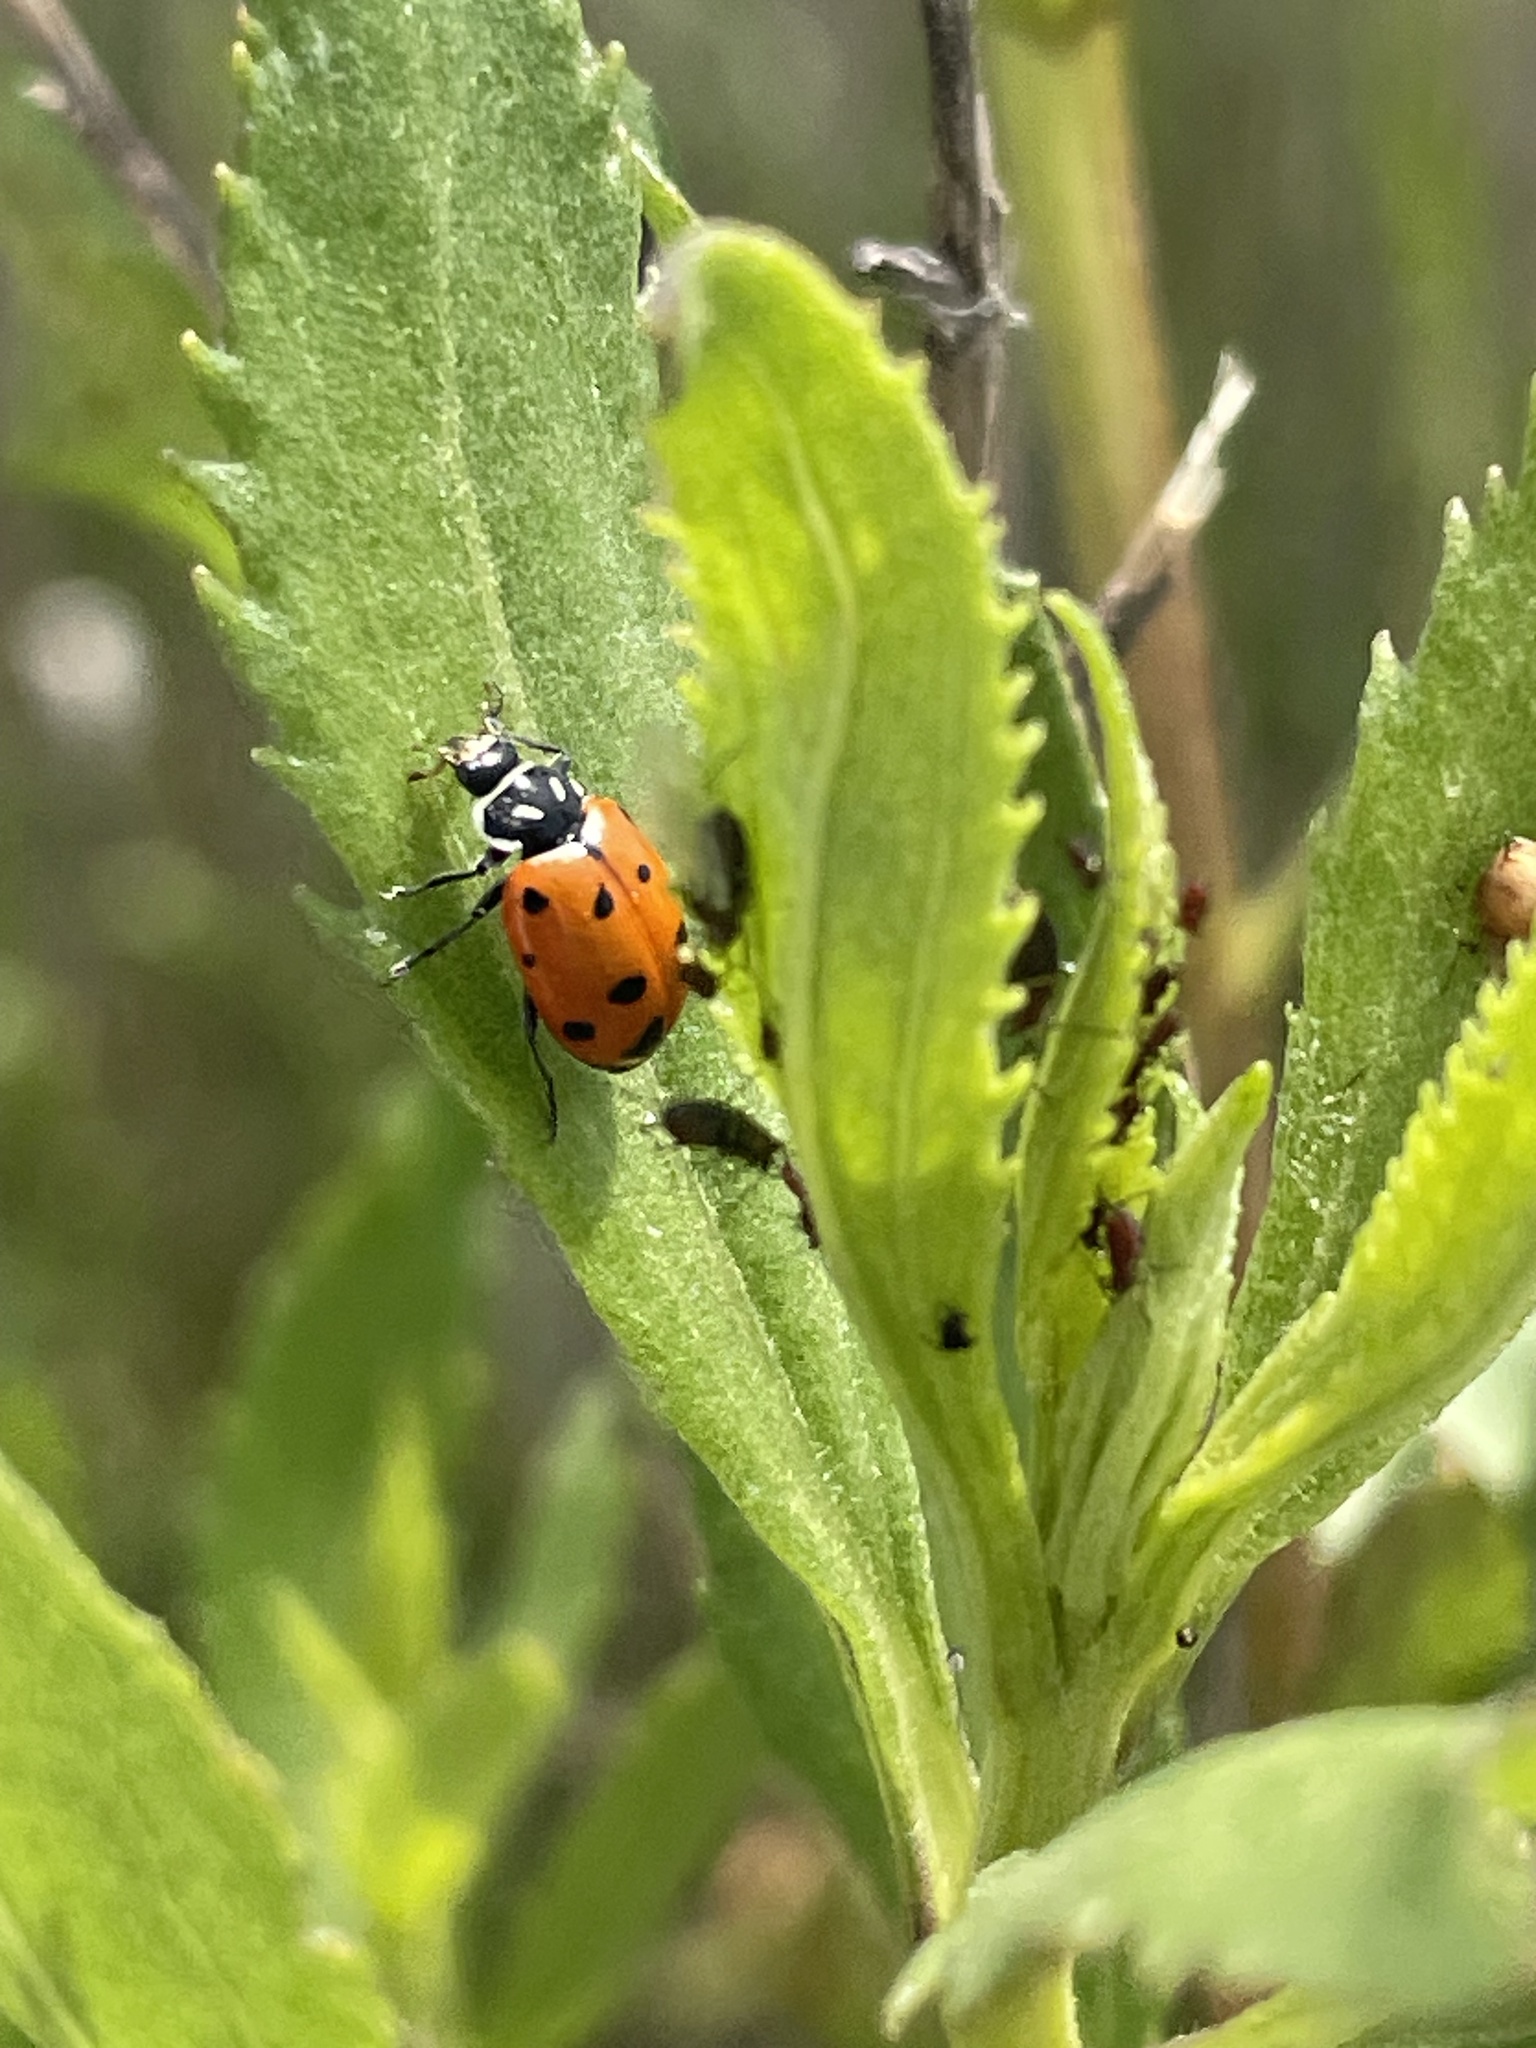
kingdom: Animalia
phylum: Arthropoda
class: Insecta
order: Coleoptera
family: Coccinellidae
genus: Hippodamia
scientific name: Hippodamia convergens
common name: Convergent lady beetle
